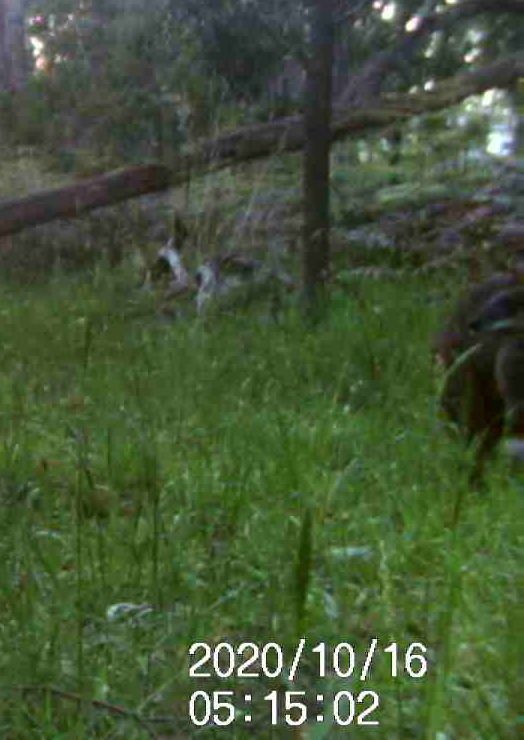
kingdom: Animalia
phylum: Chordata
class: Mammalia
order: Diprotodontia
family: Macropodidae
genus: Wallabia
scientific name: Wallabia bicolor
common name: Swamp wallaby
